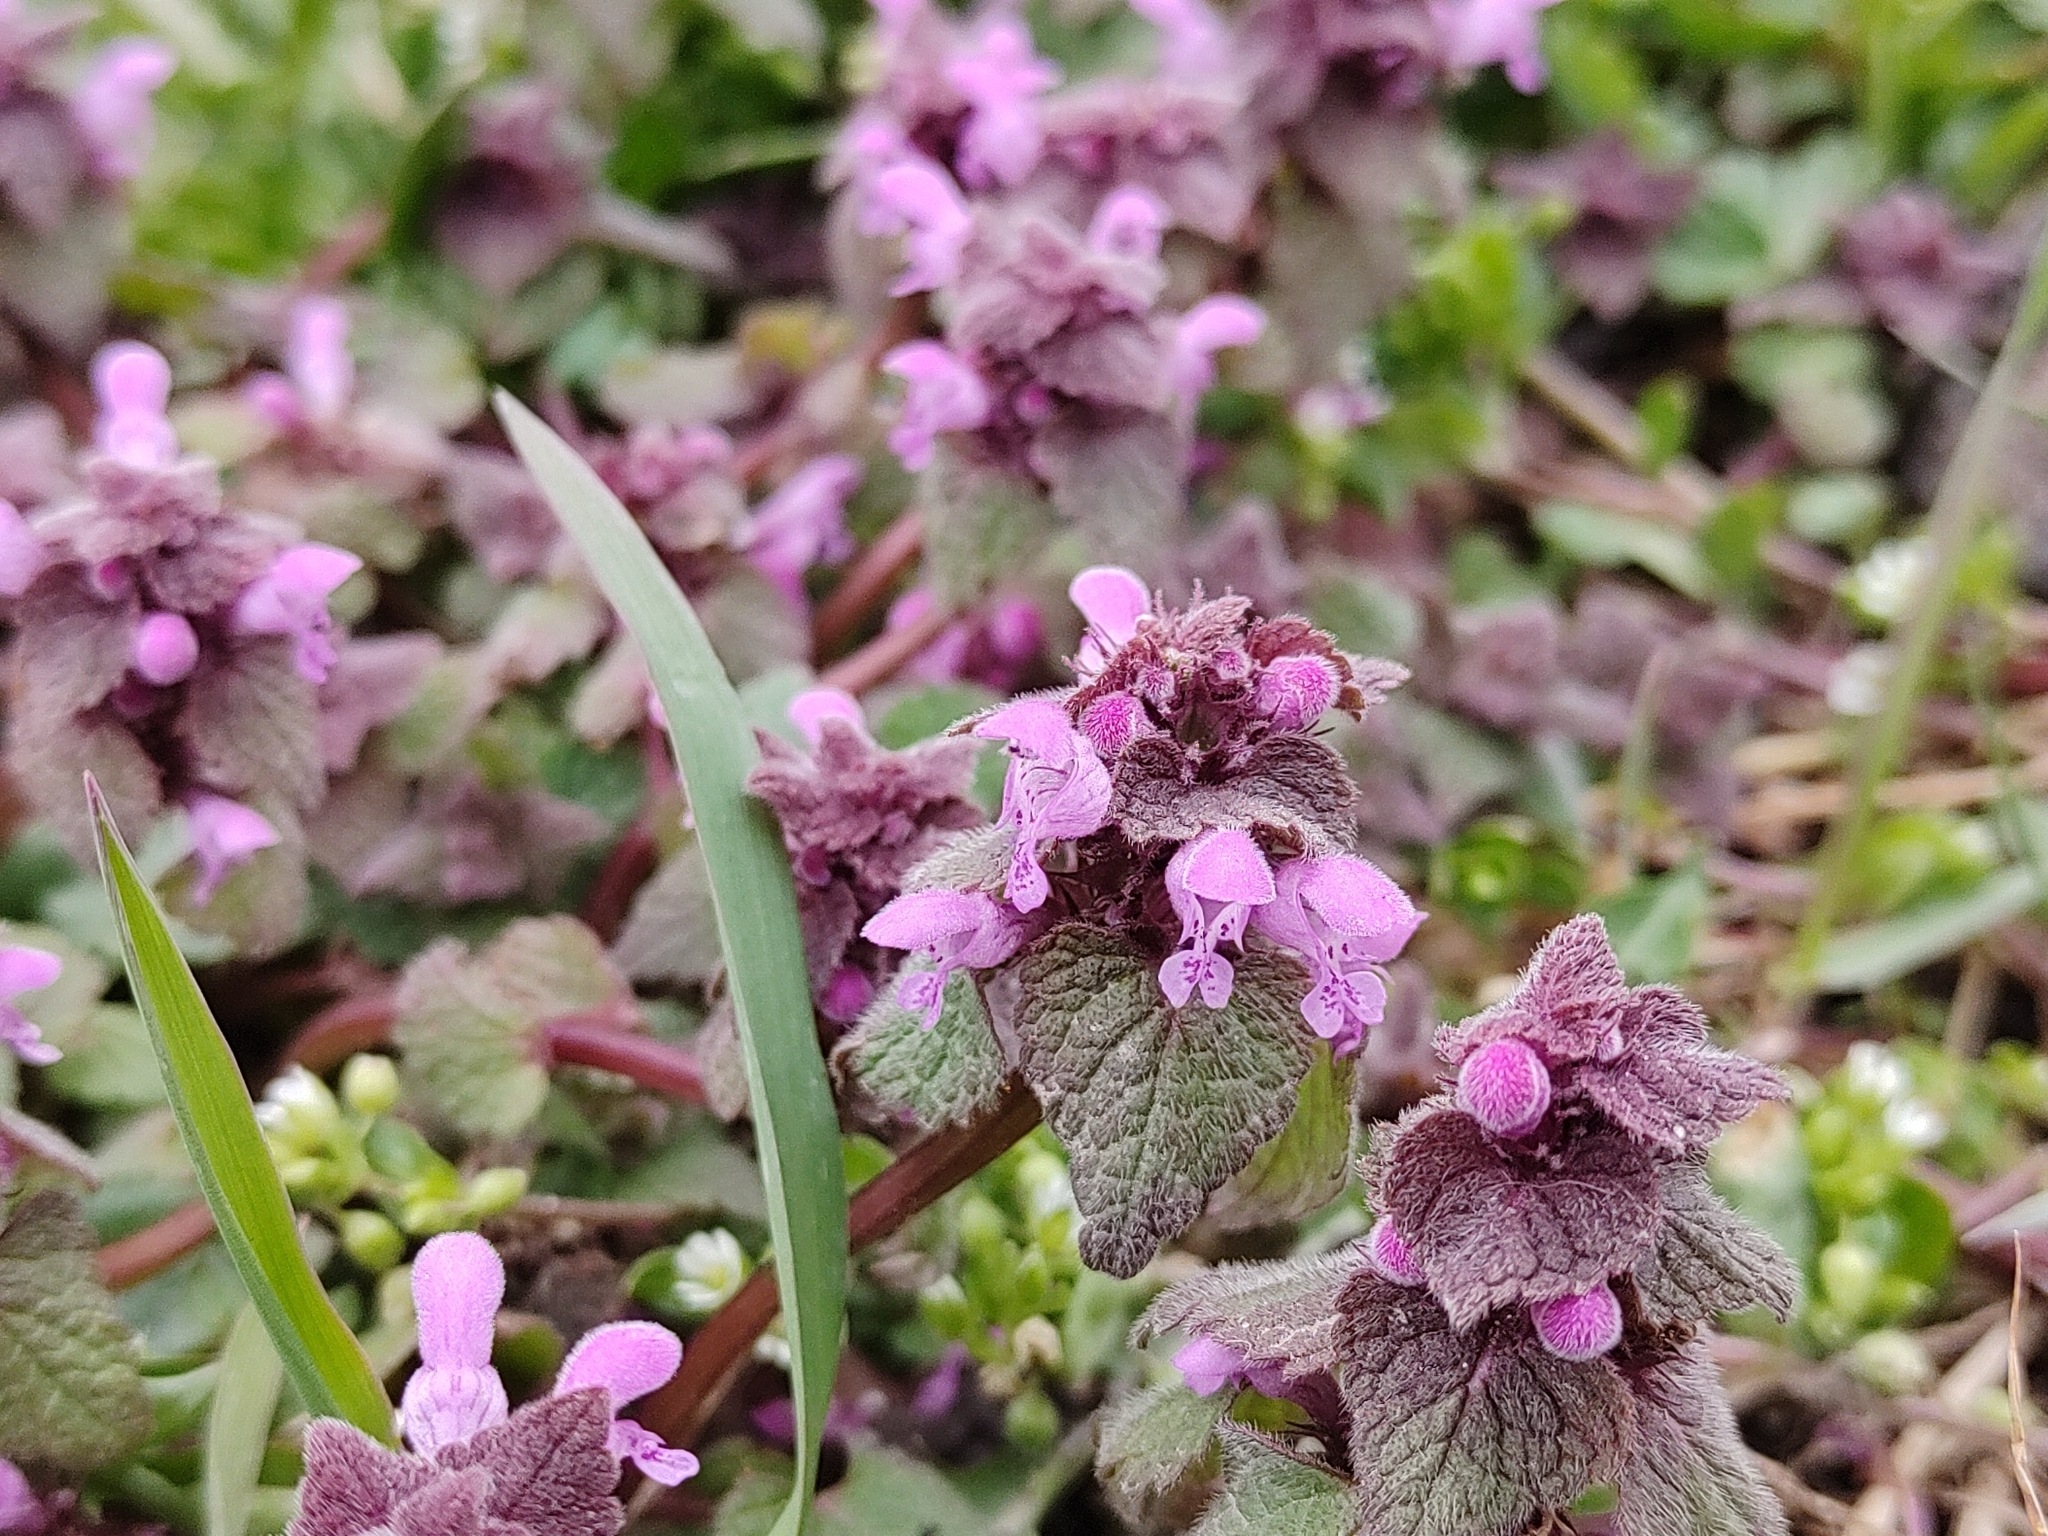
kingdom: Plantae
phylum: Tracheophyta
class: Magnoliopsida
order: Lamiales
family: Lamiaceae
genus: Lamium
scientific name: Lamium purpureum
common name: Red dead-nettle
